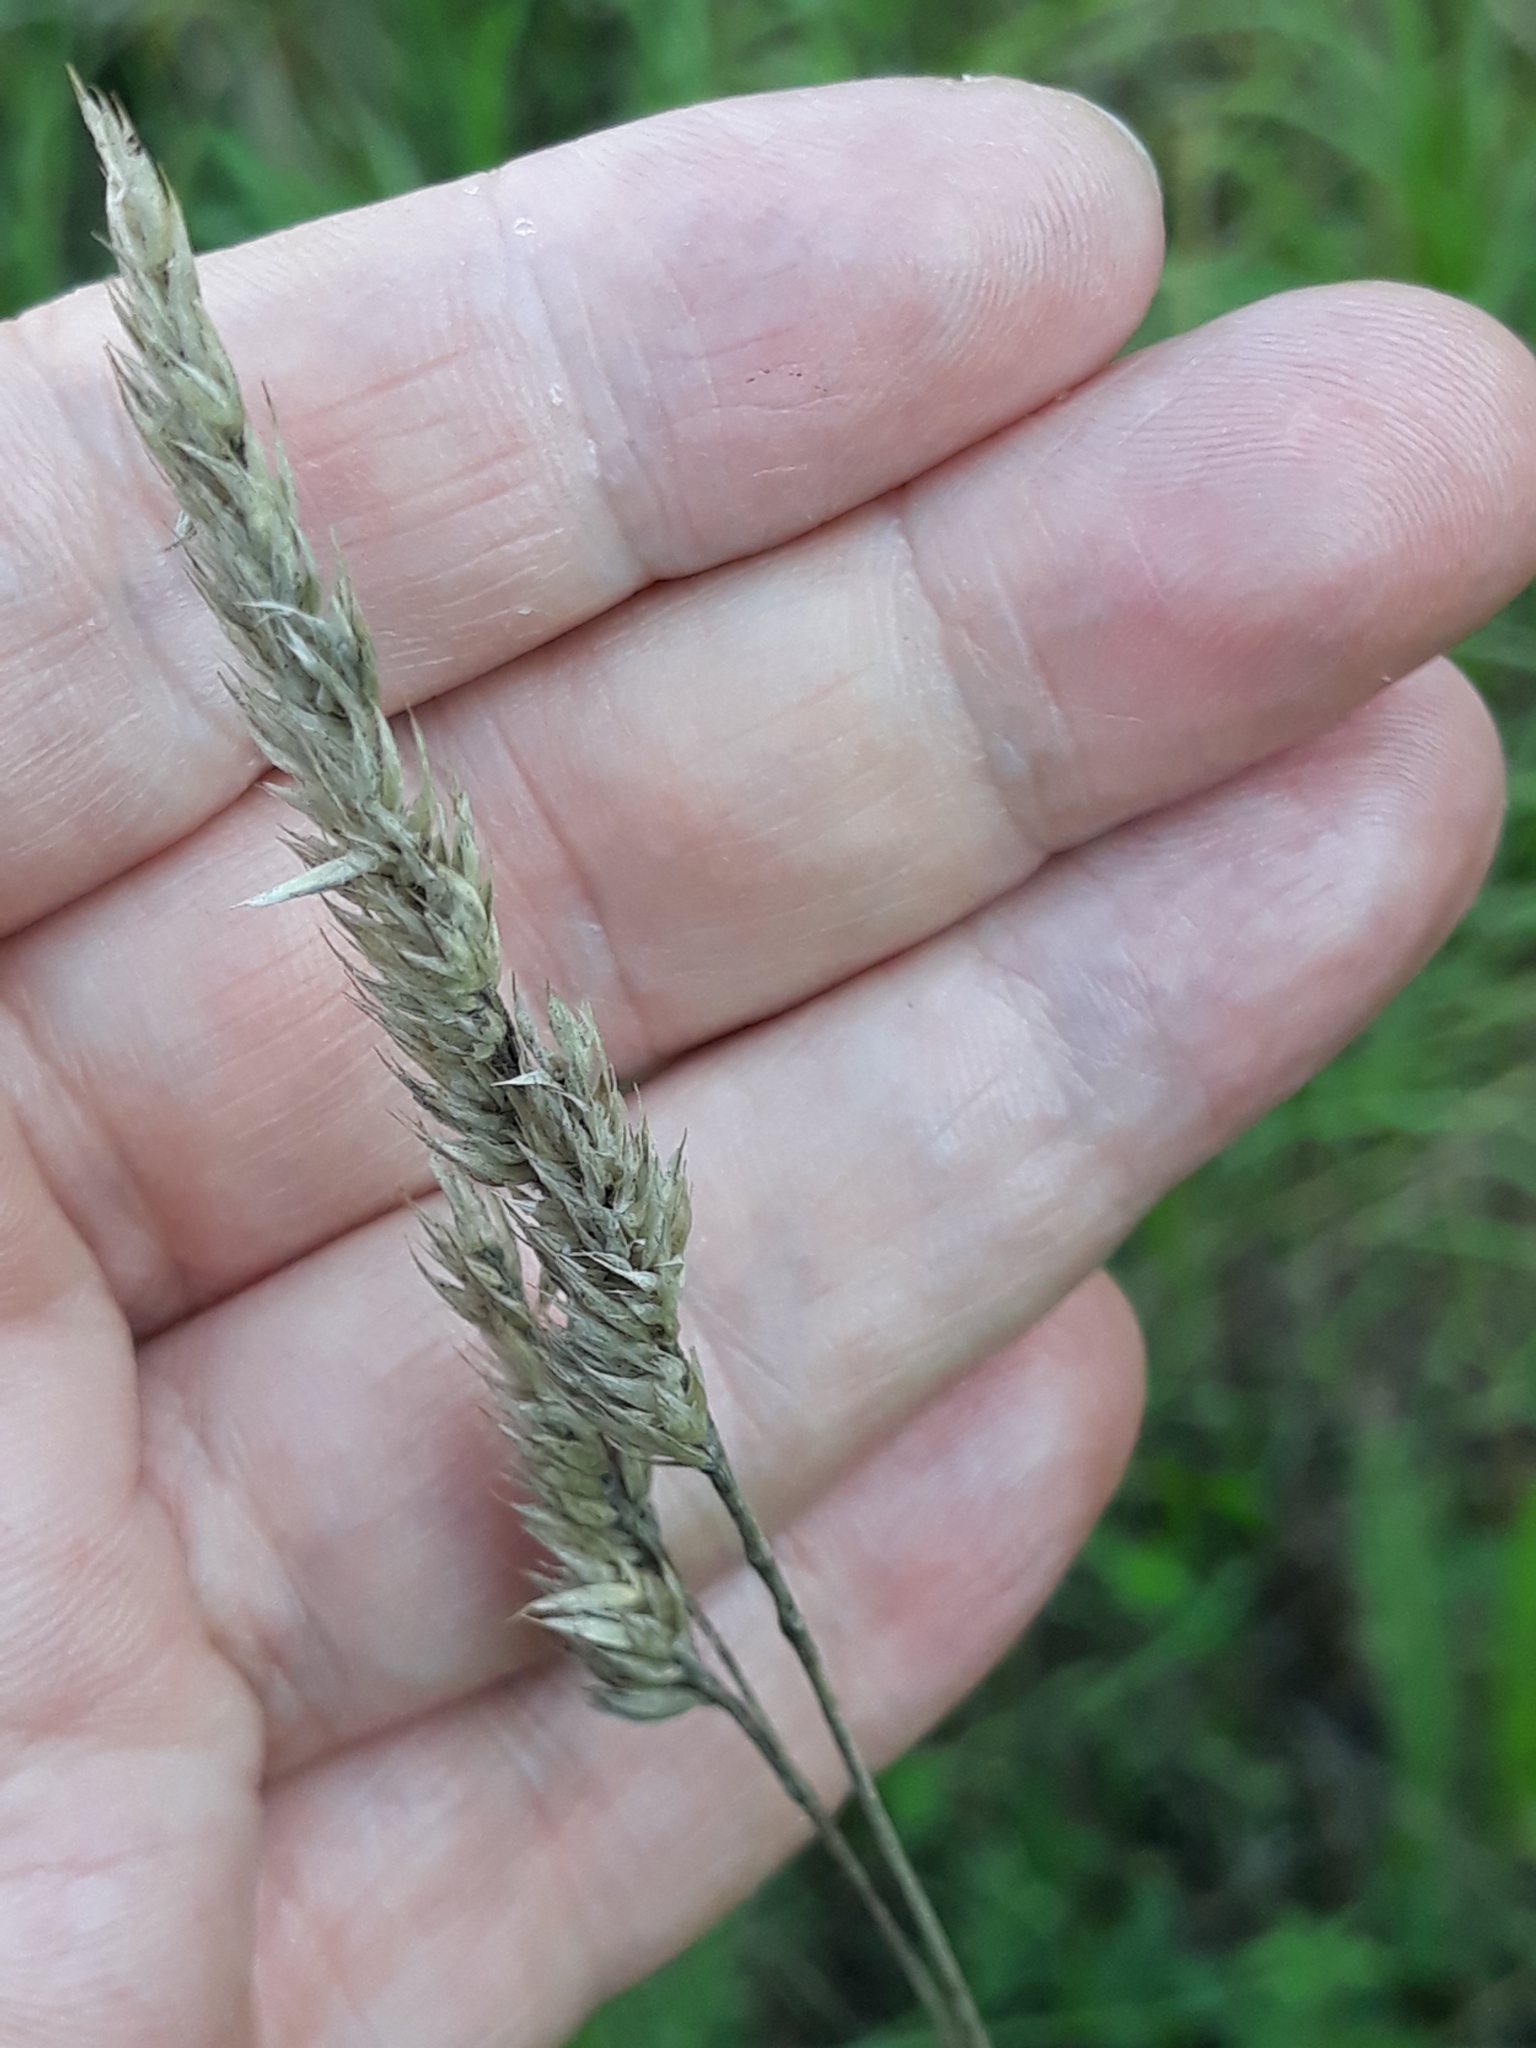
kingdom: Plantae
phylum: Tracheophyta
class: Liliopsida
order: Poales
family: Poaceae
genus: Dactylis
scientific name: Dactylis glomerata
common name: Orchardgrass
